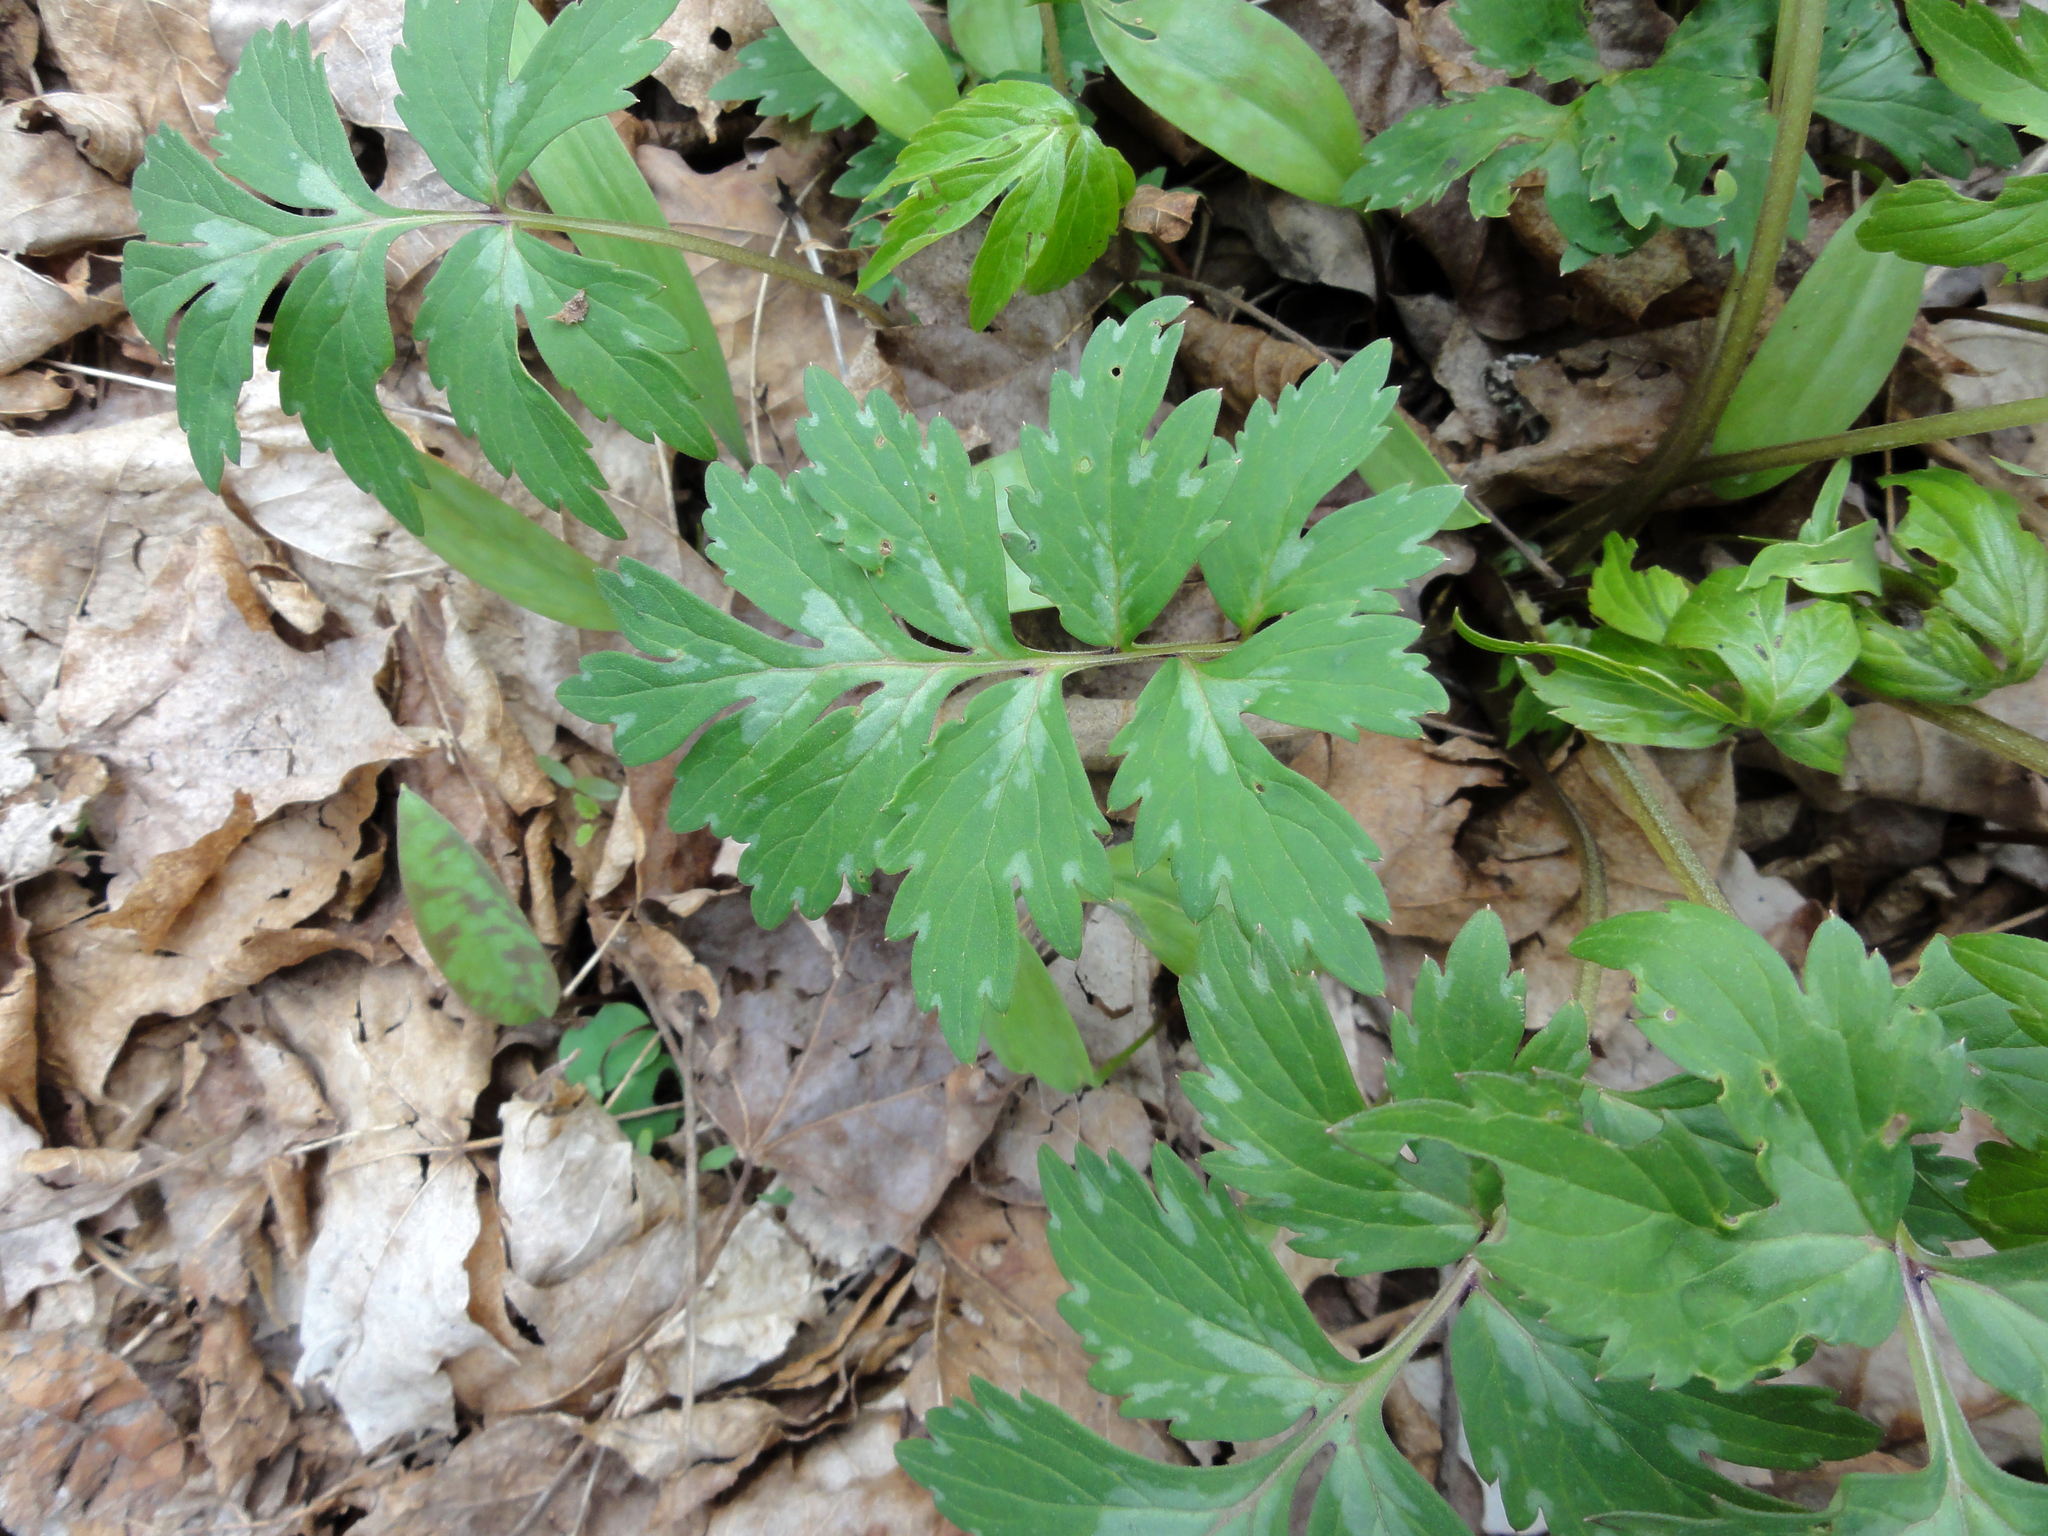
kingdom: Plantae
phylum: Tracheophyta
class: Magnoliopsida
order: Boraginales
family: Hydrophyllaceae
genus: Hydrophyllum
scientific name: Hydrophyllum virginianum
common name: Virginia waterleaf
